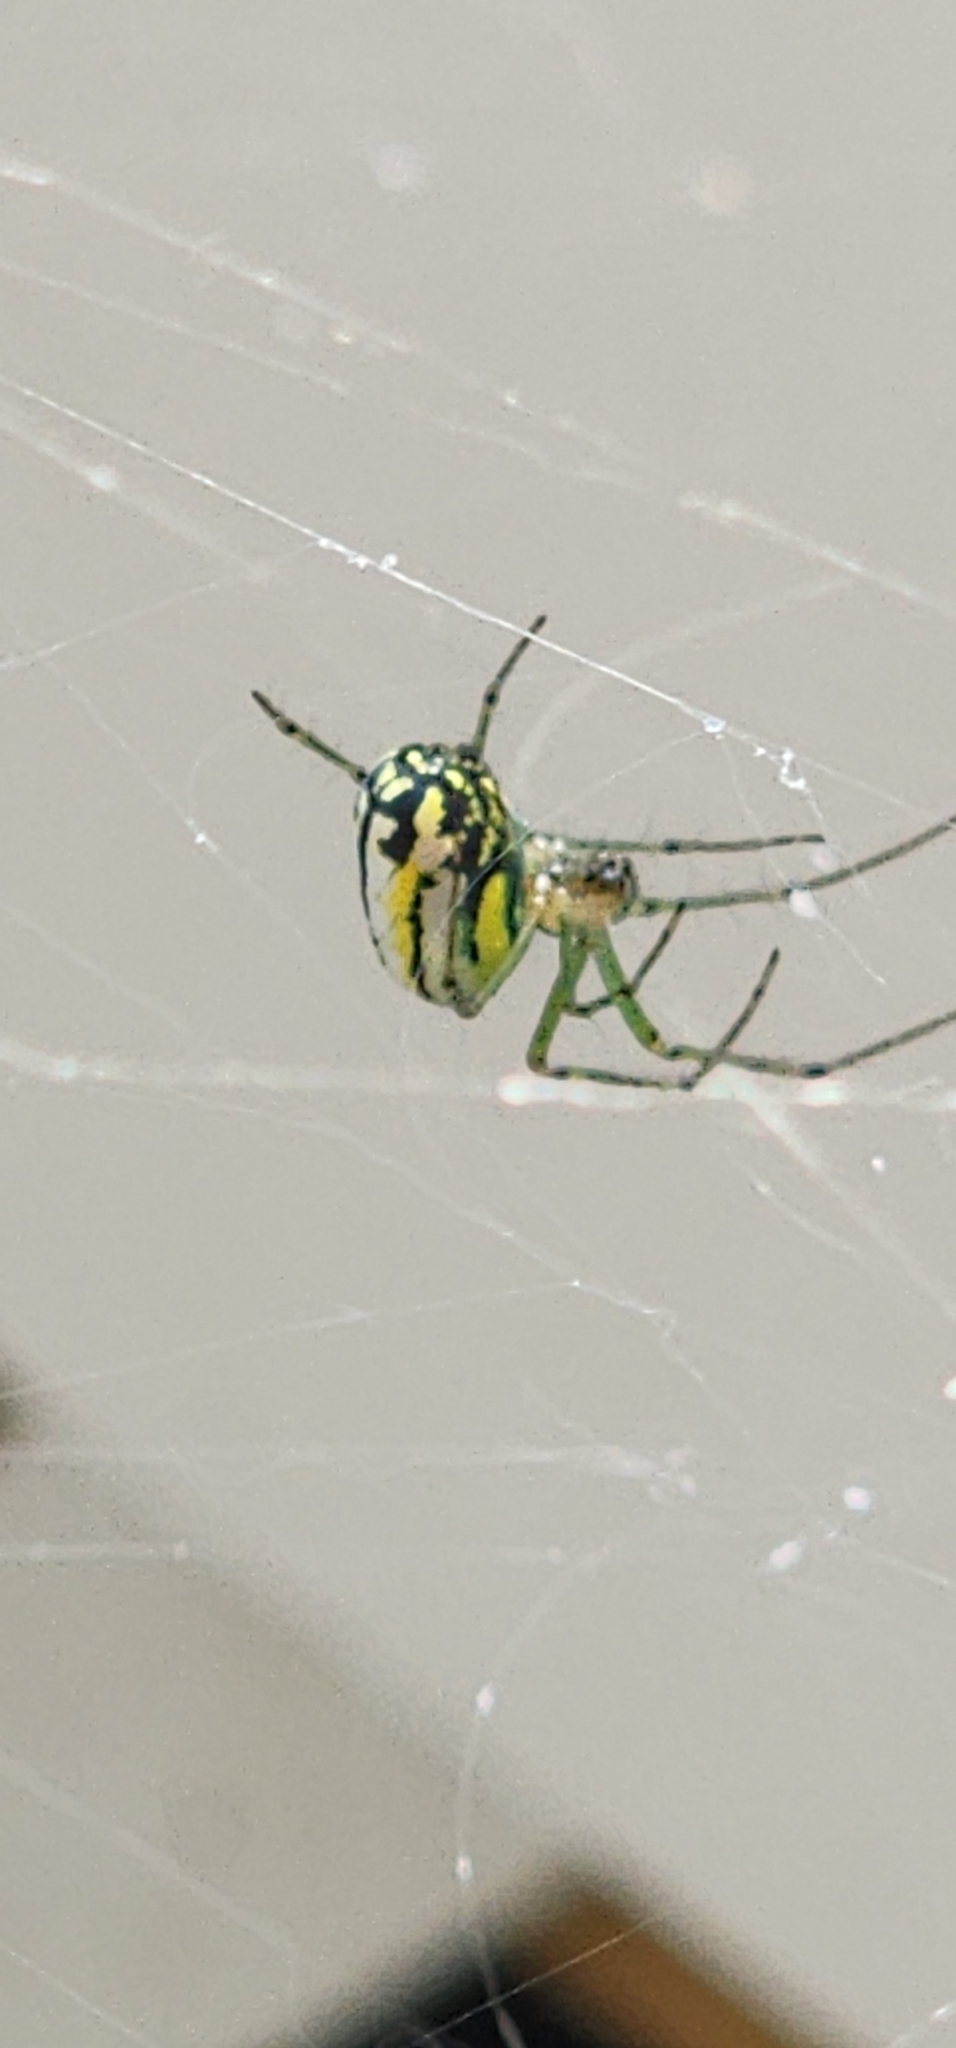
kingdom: Animalia
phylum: Arthropoda
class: Arachnida
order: Araneae
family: Tetragnathidae
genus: Leucauge
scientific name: Leucauge venusta
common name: Longjawed orb weavers
